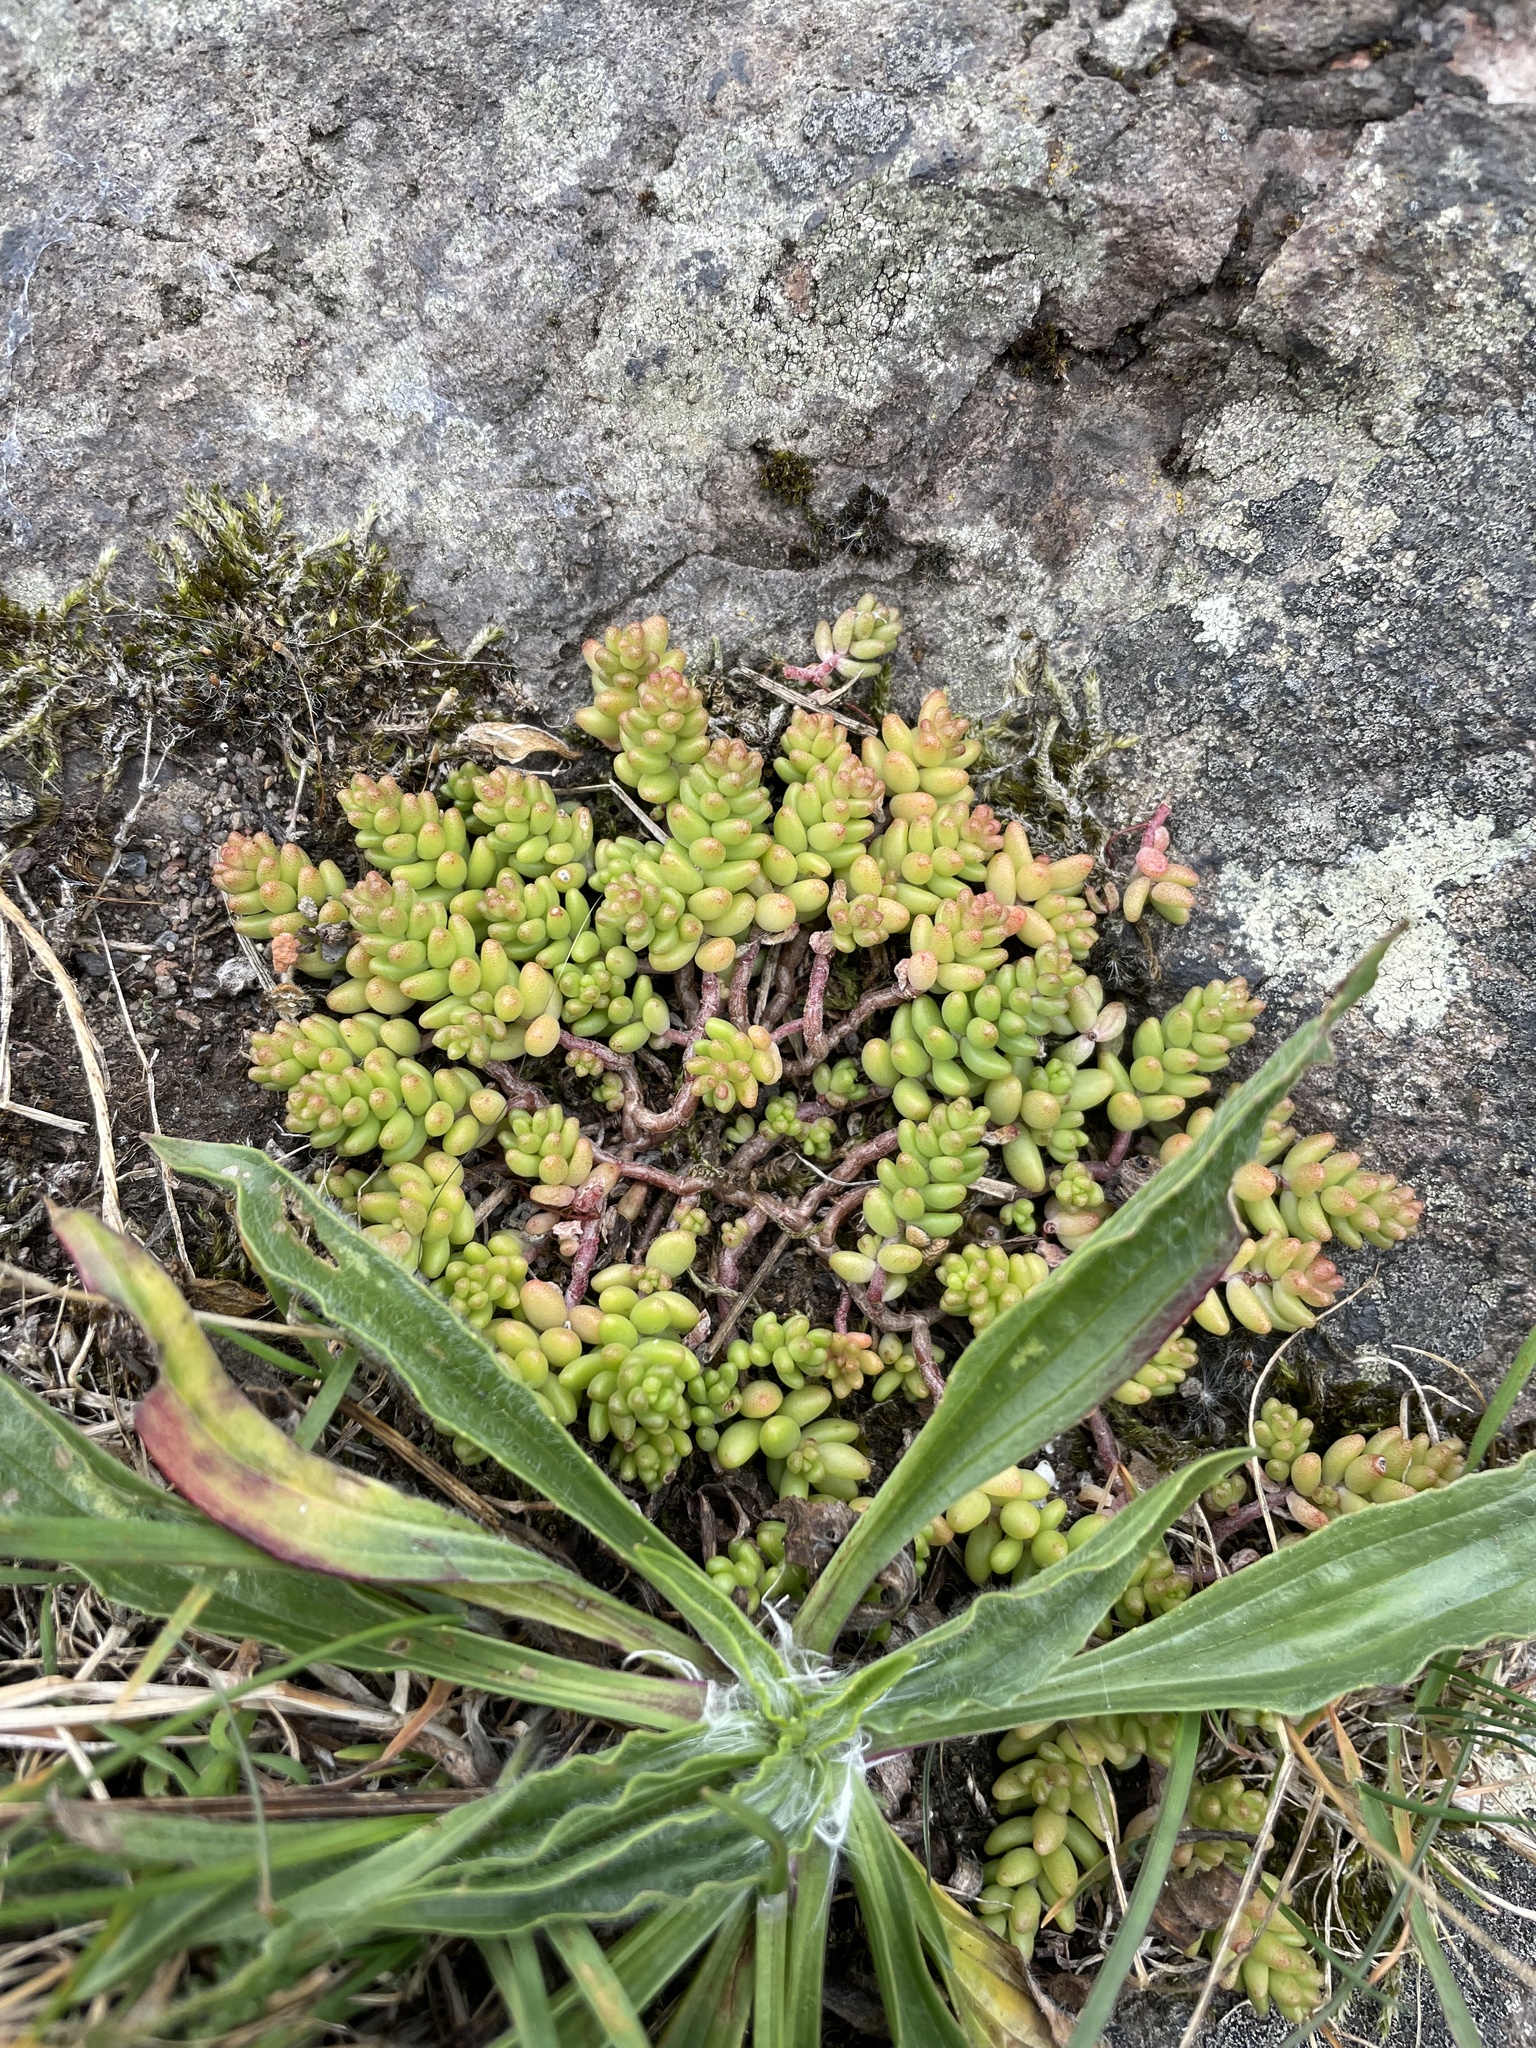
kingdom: Plantae
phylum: Tracheophyta
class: Magnoliopsida
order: Saxifragales
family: Crassulaceae
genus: Sedum
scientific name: Sedum album
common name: White stonecrop
